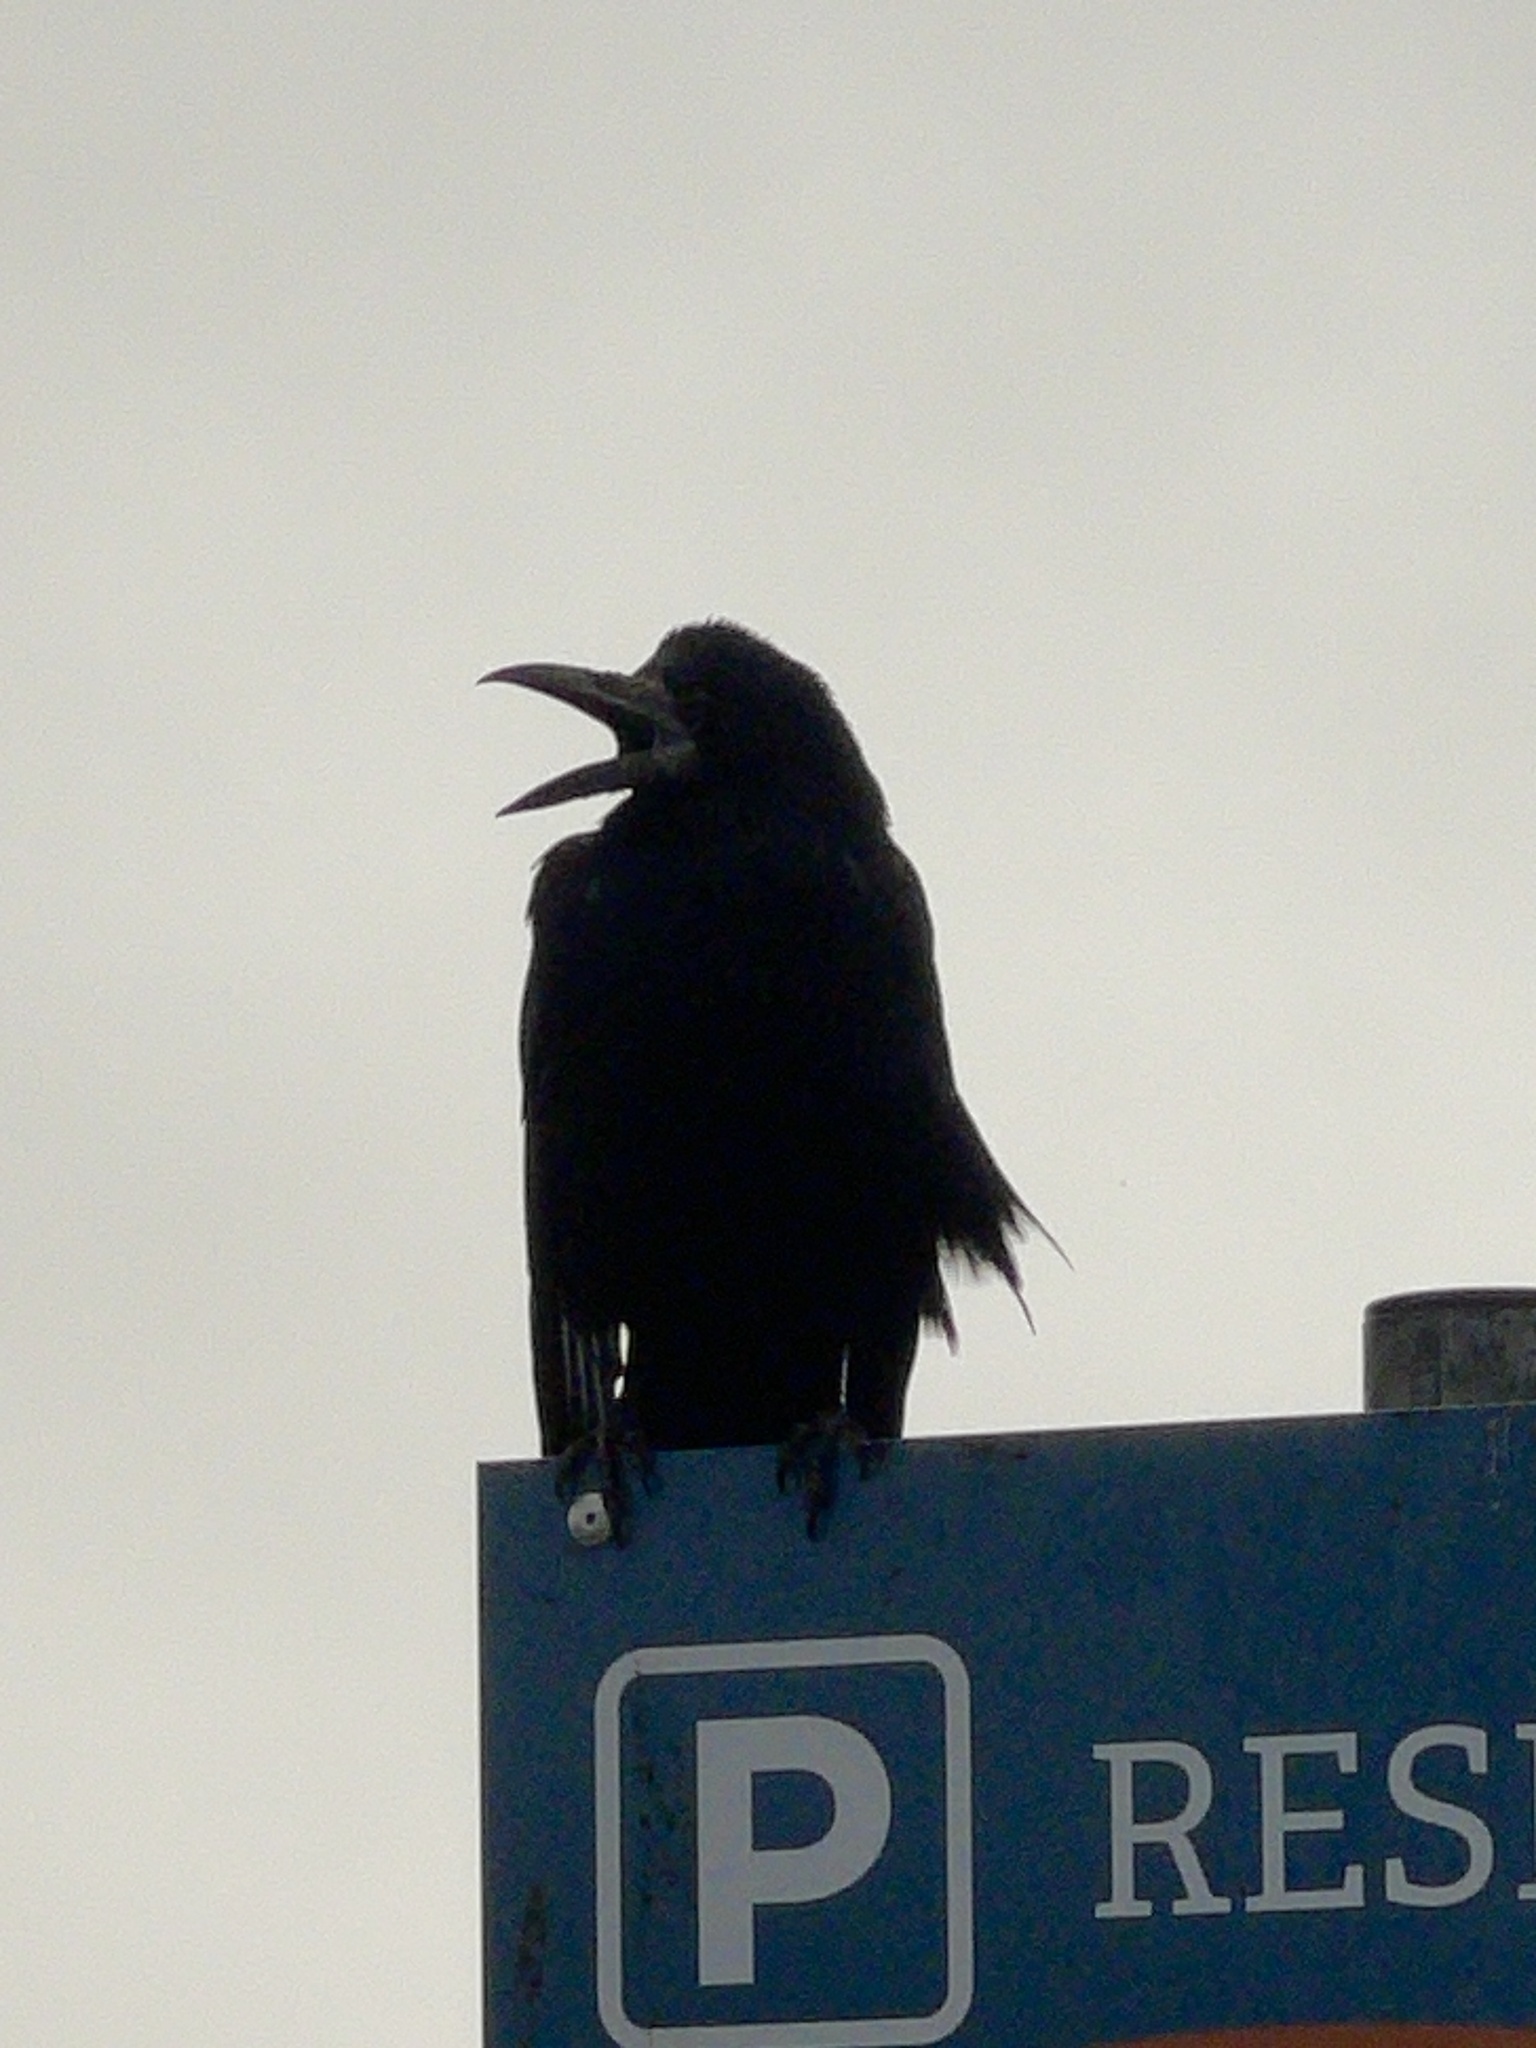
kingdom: Animalia
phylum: Chordata
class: Aves
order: Passeriformes
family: Corvidae
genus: Corvus
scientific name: Corvus frugilegus
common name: Rook
